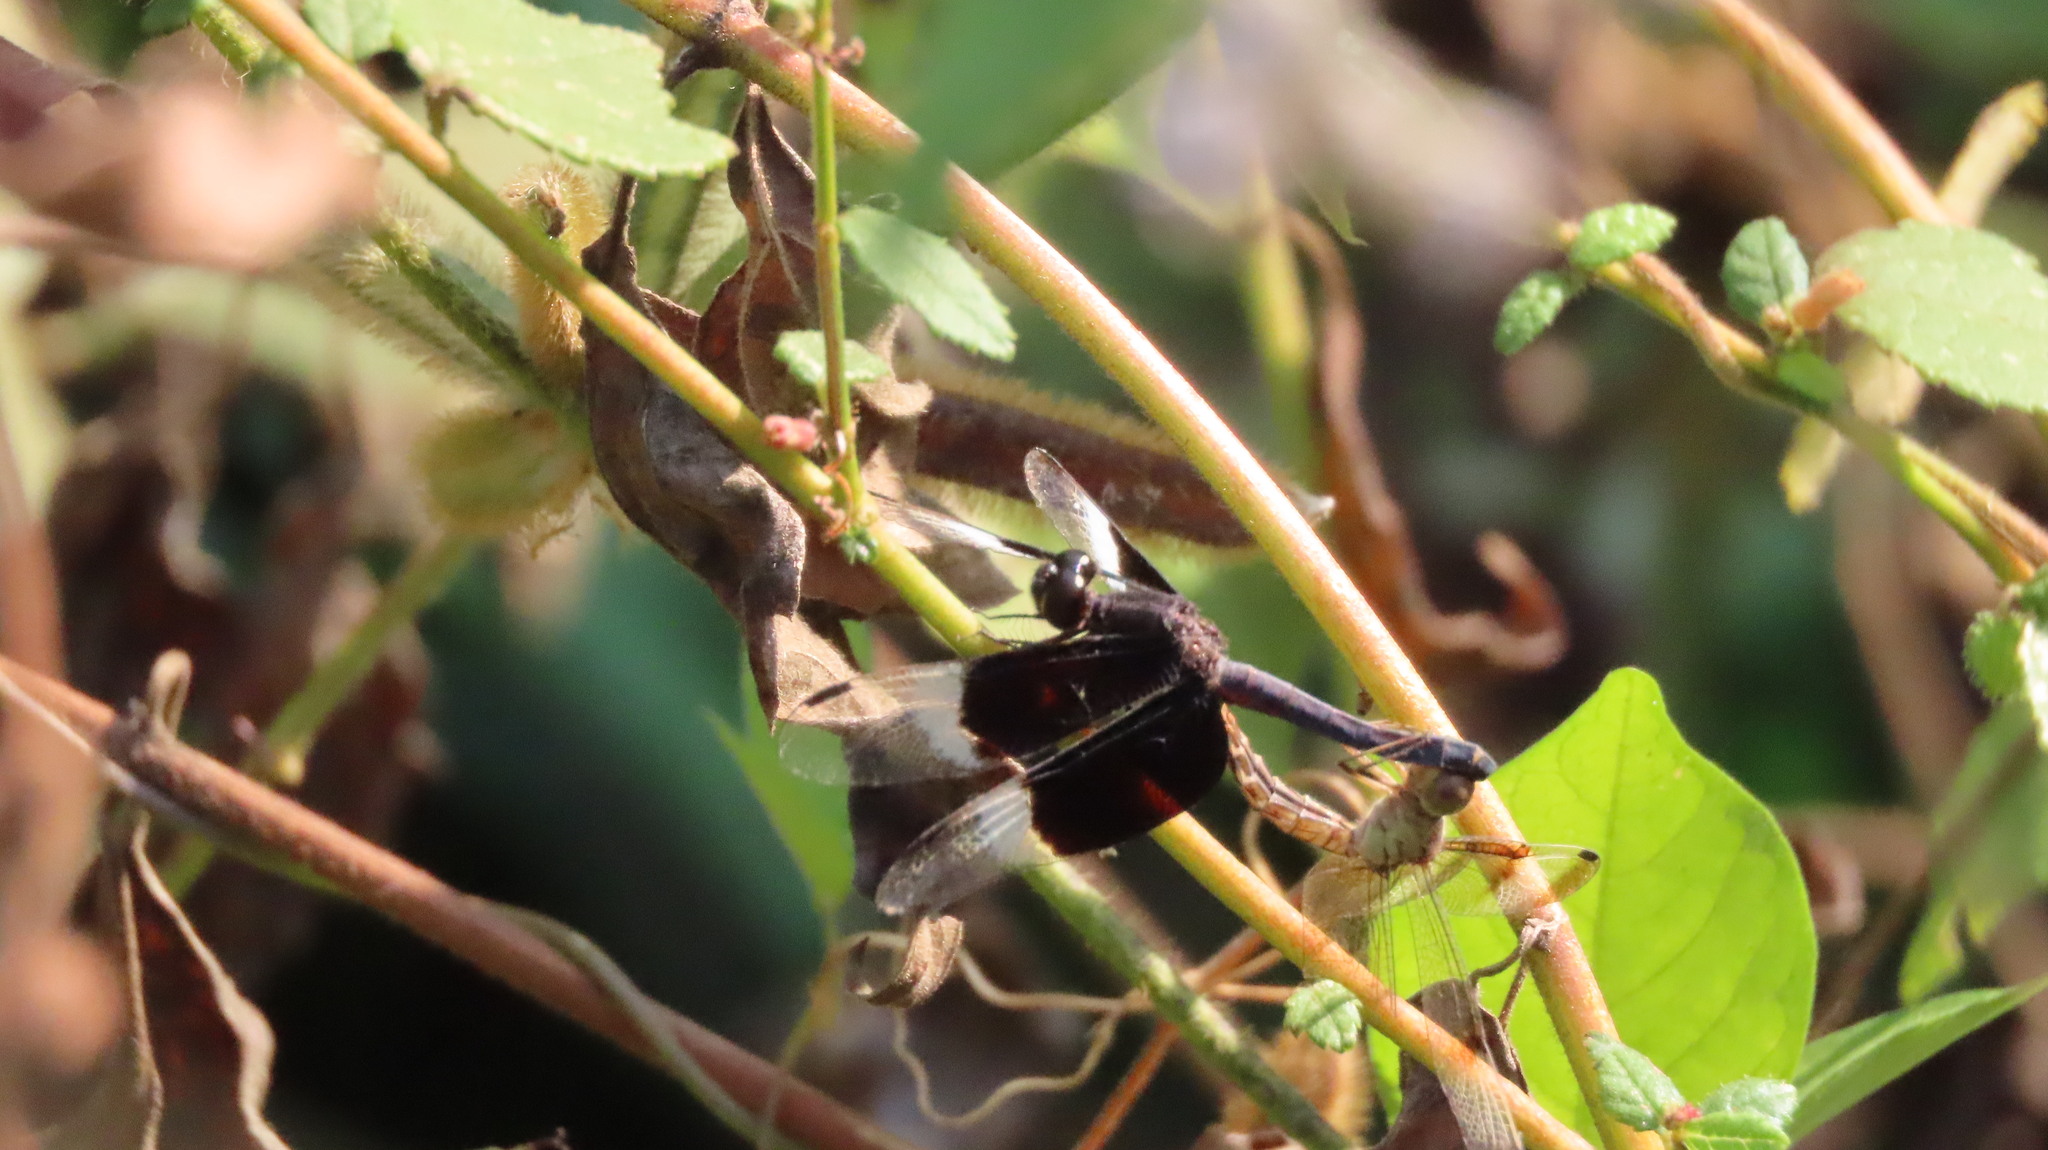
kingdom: Animalia
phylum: Arthropoda
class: Insecta
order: Odonata
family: Libellulidae
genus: Neurothemis
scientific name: Neurothemis tullia
